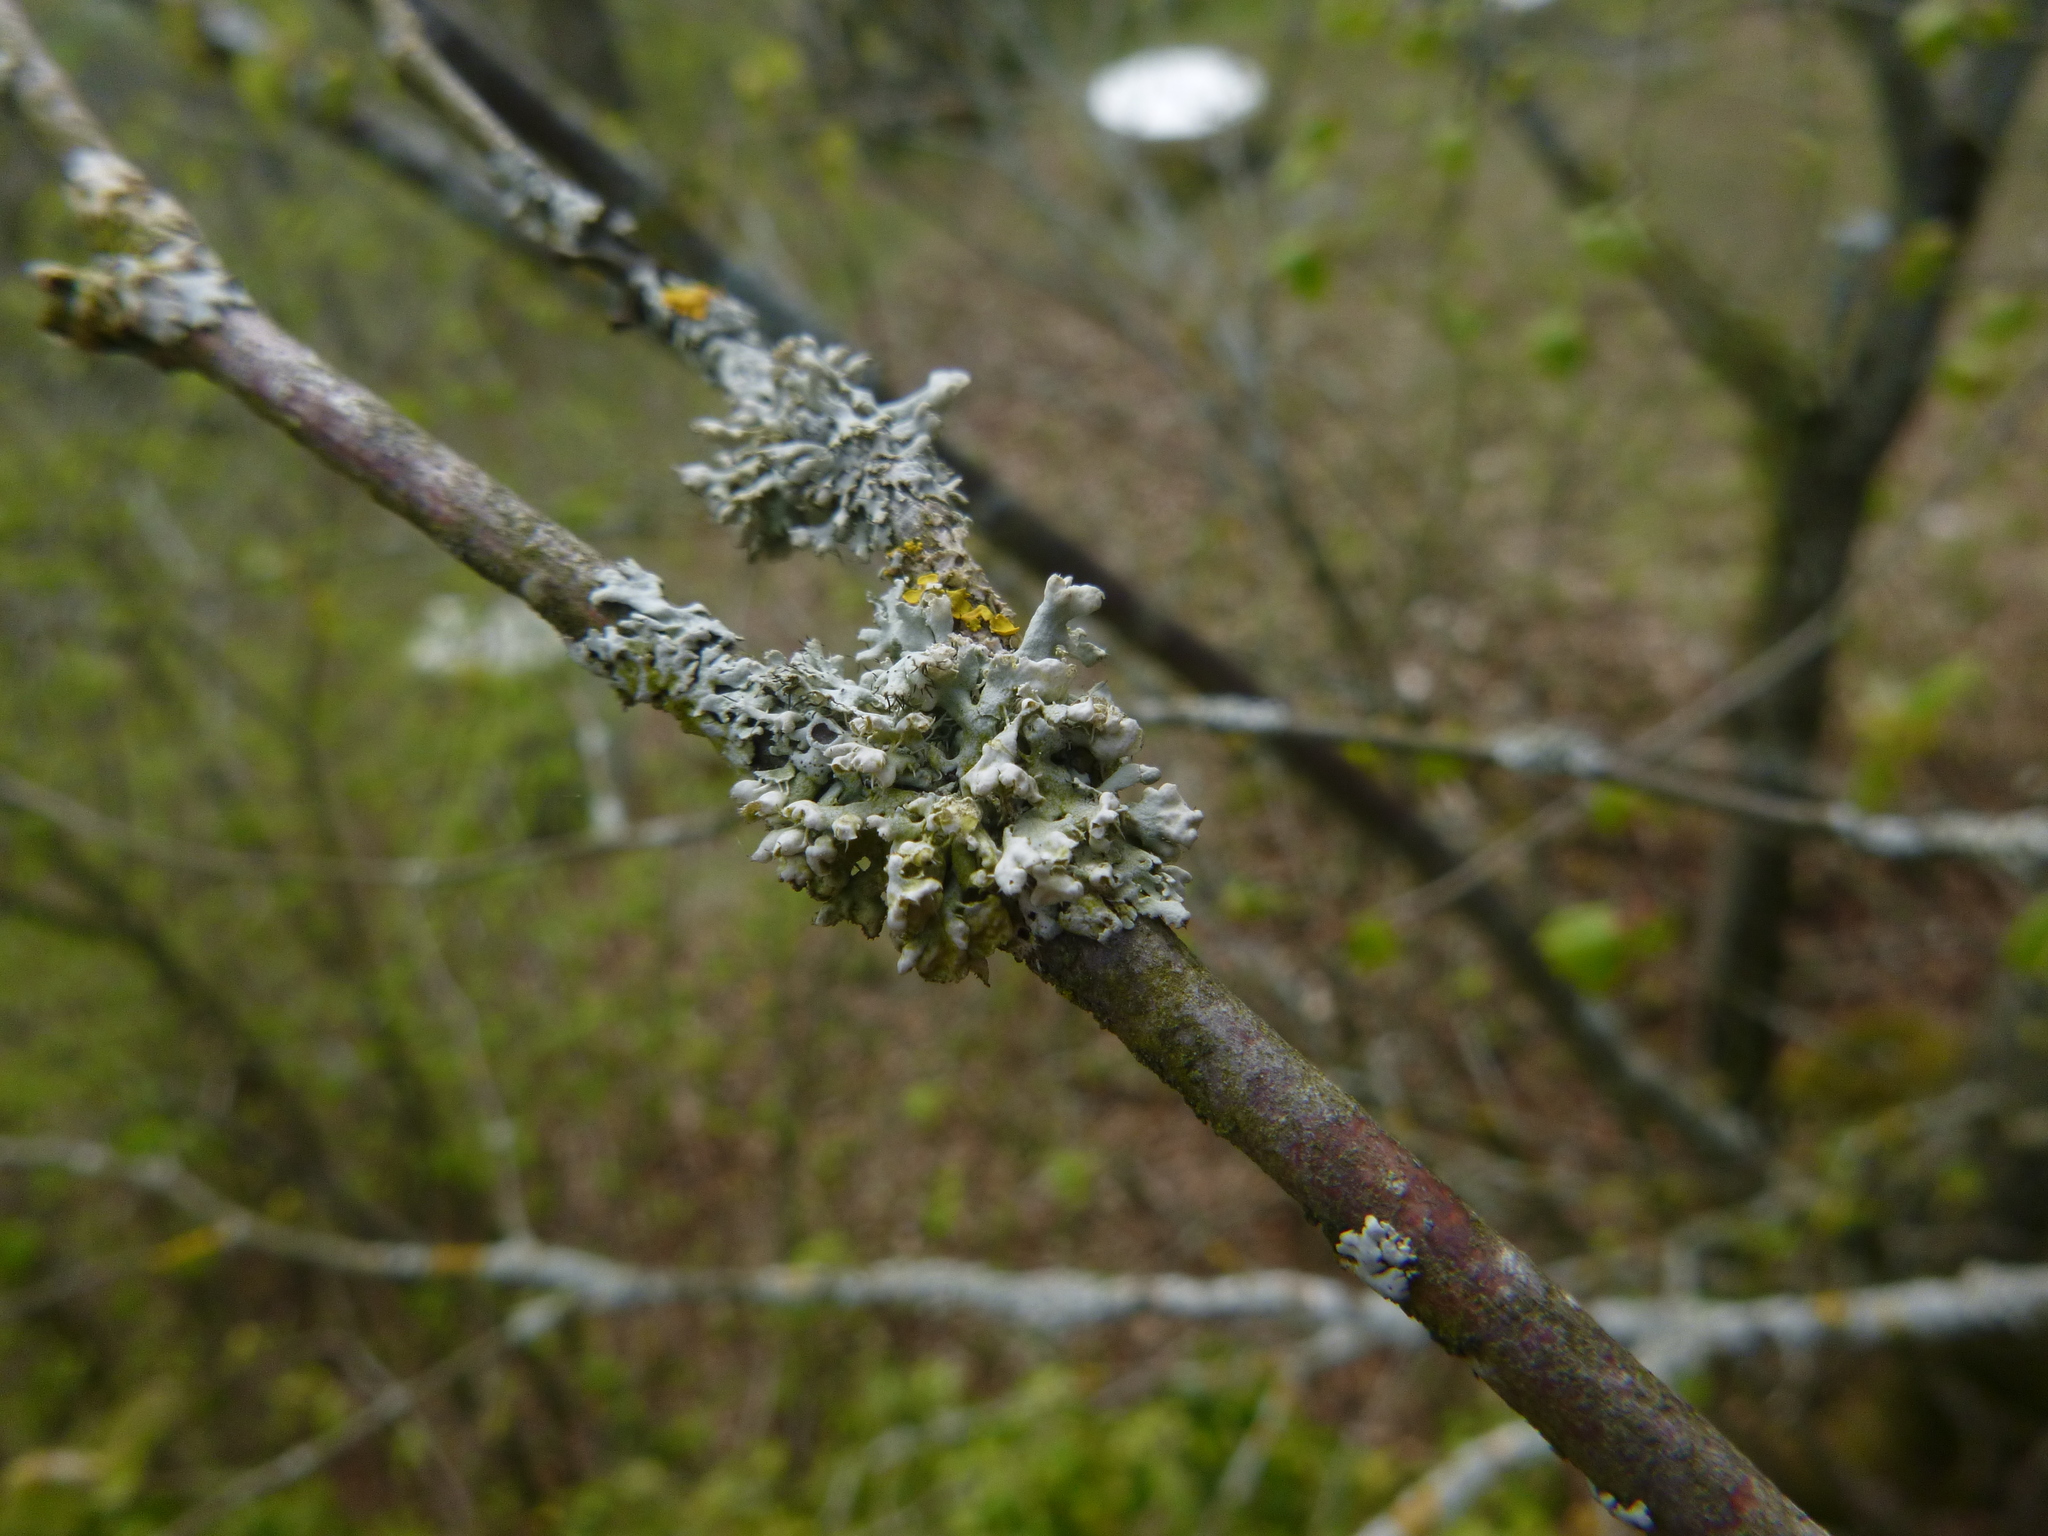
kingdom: Fungi
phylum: Ascomycota
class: Lecanoromycetes
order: Caliciales
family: Physciaceae
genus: Physcia
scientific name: Physcia adscendens
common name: Hooded rosette lichen
